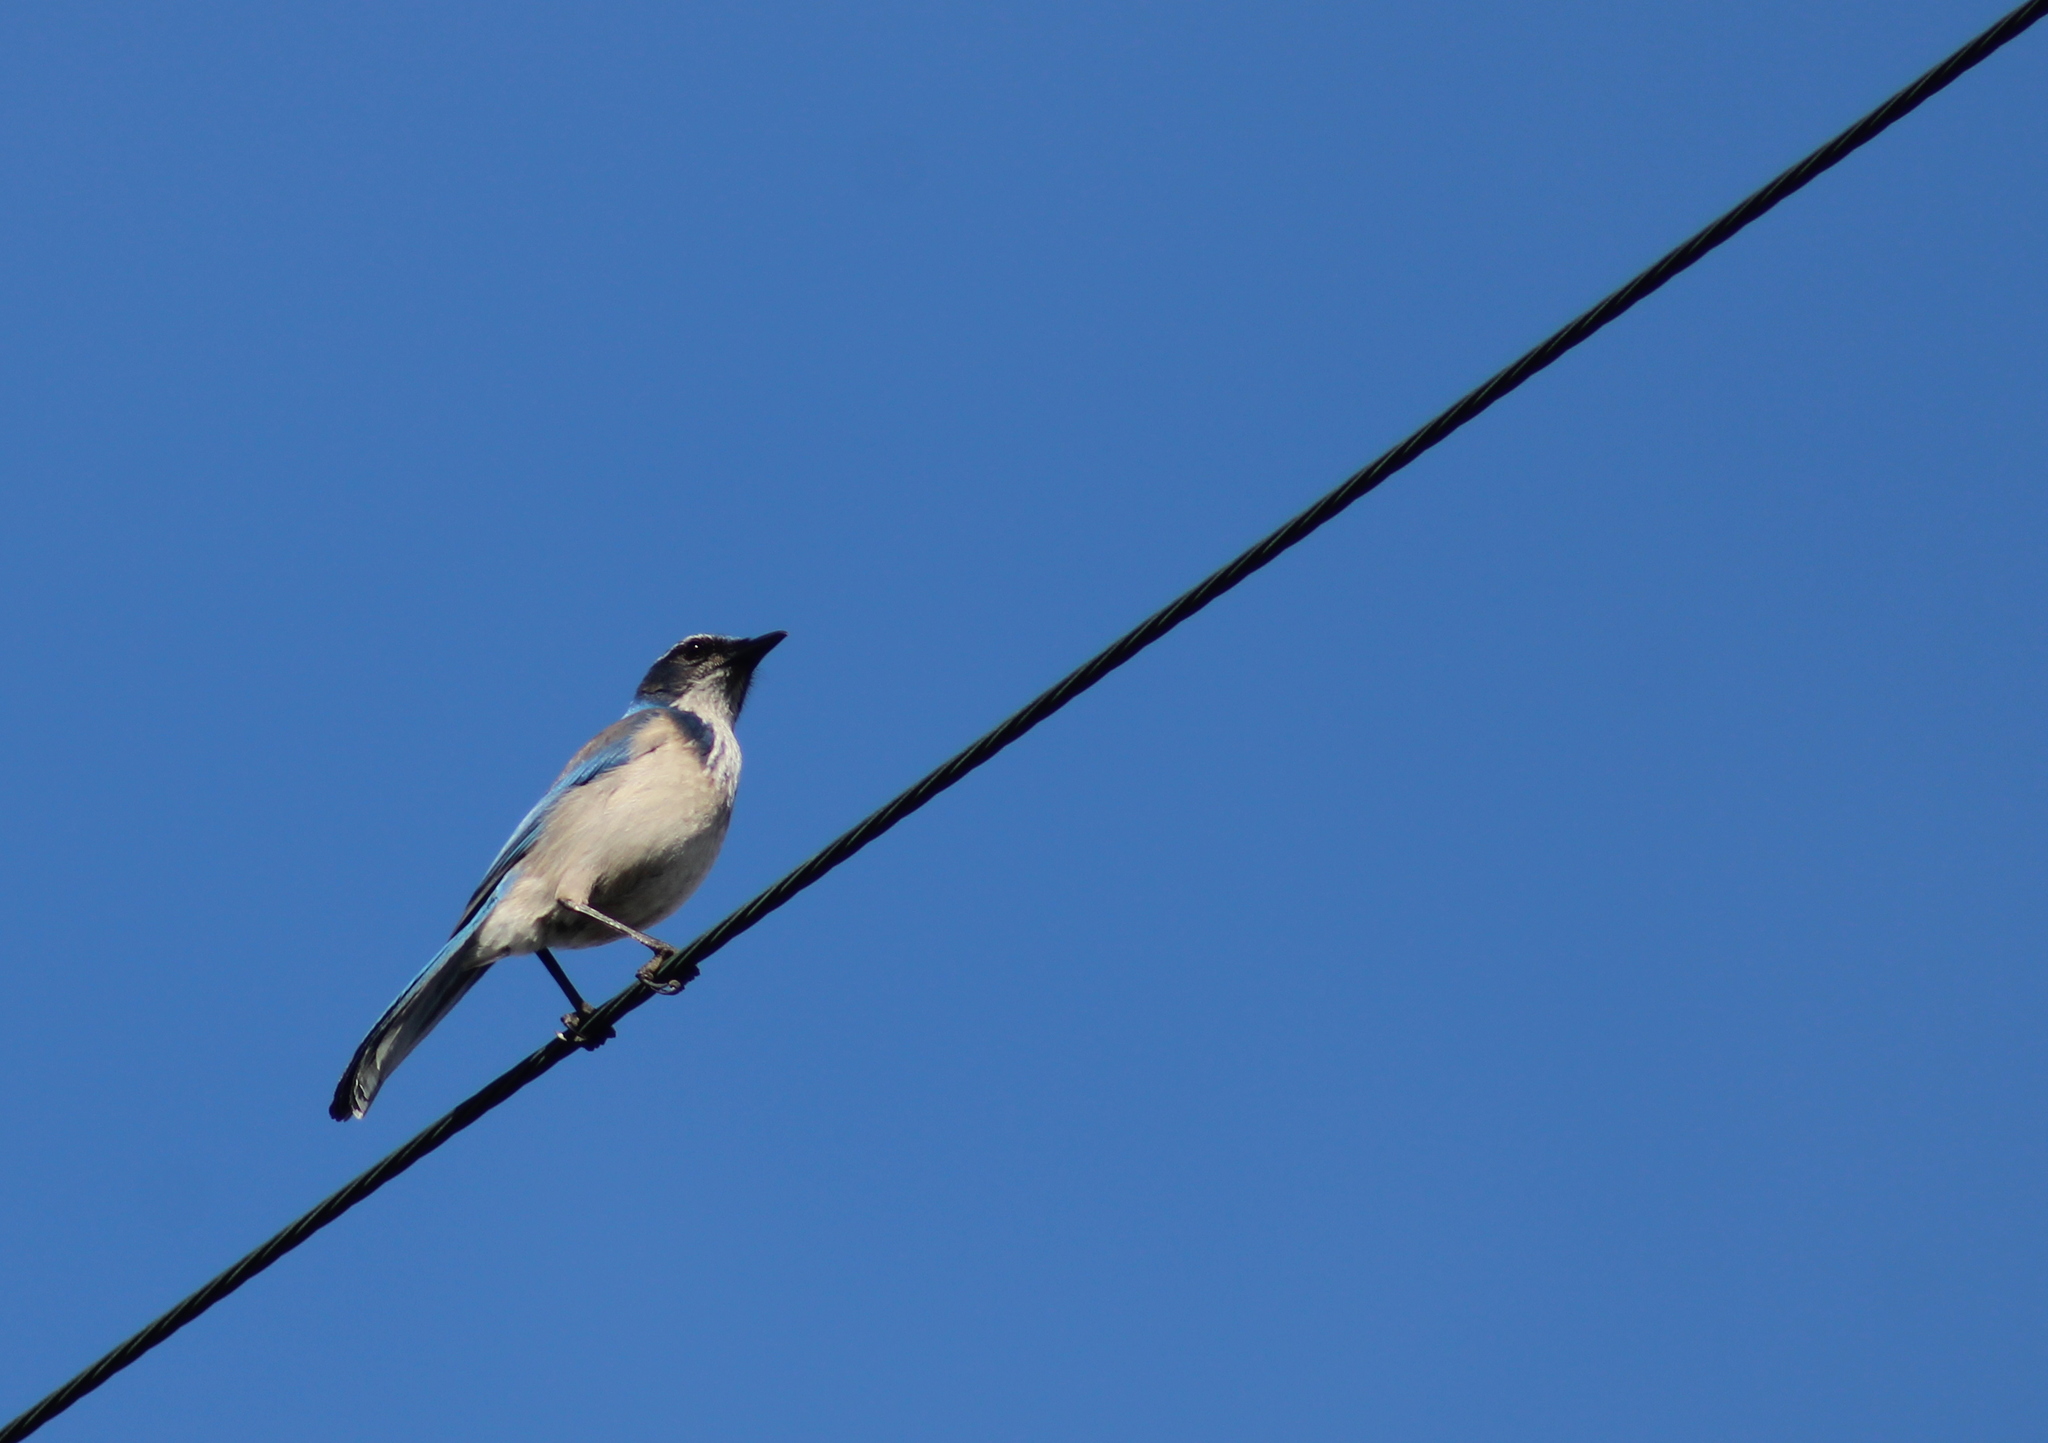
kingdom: Animalia
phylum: Chordata
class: Aves
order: Passeriformes
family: Corvidae
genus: Aphelocoma
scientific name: Aphelocoma californica
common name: California scrub-jay
